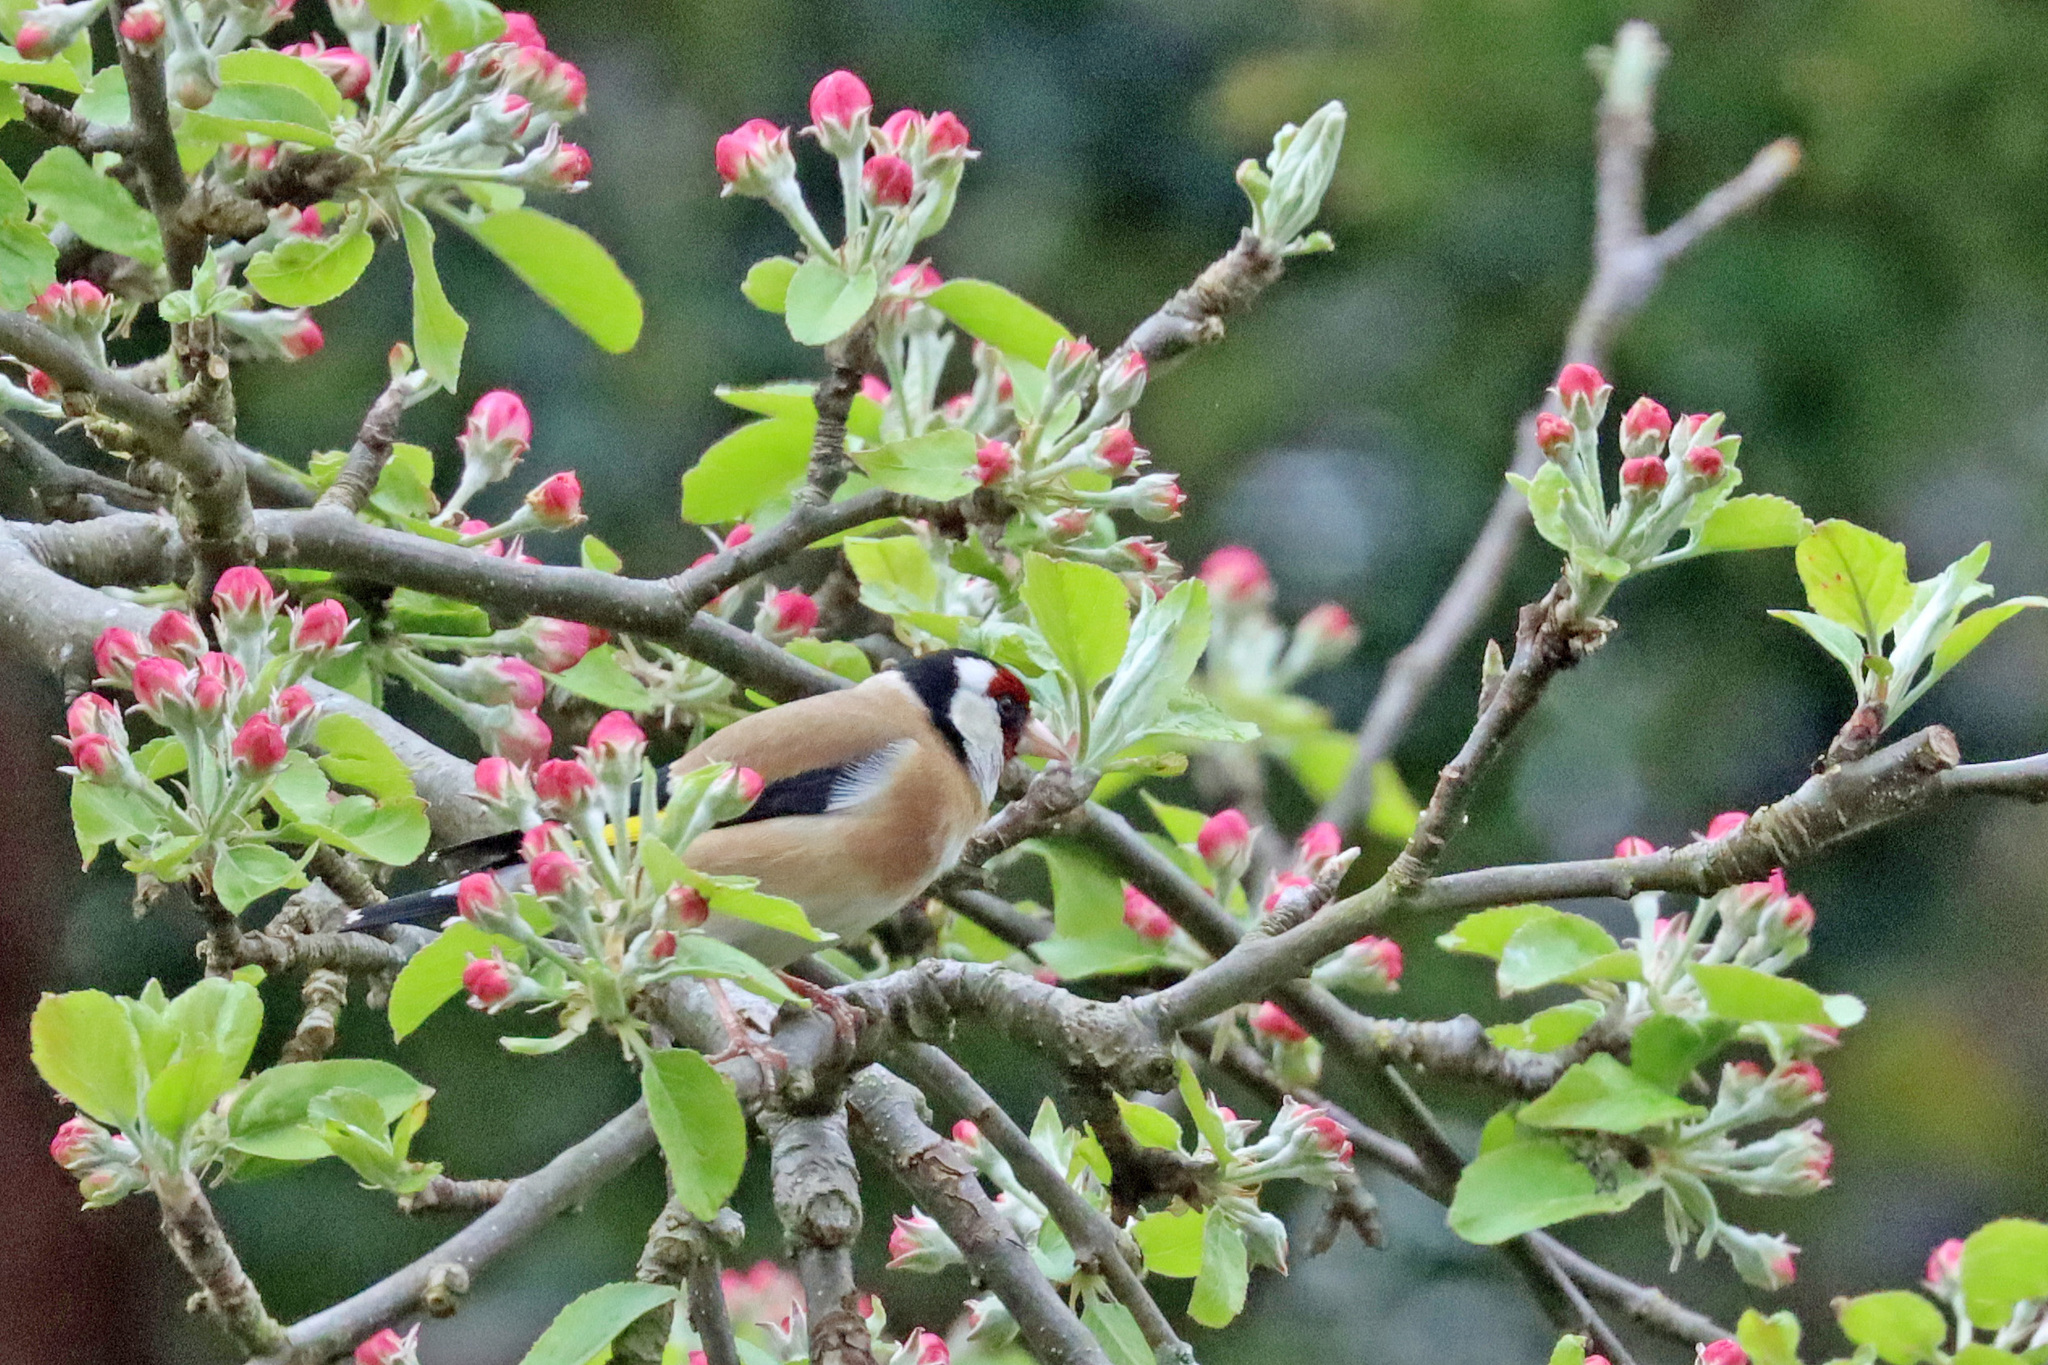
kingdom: Animalia
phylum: Chordata
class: Aves
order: Passeriformes
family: Fringillidae
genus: Carduelis
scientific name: Carduelis carduelis
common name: European goldfinch
